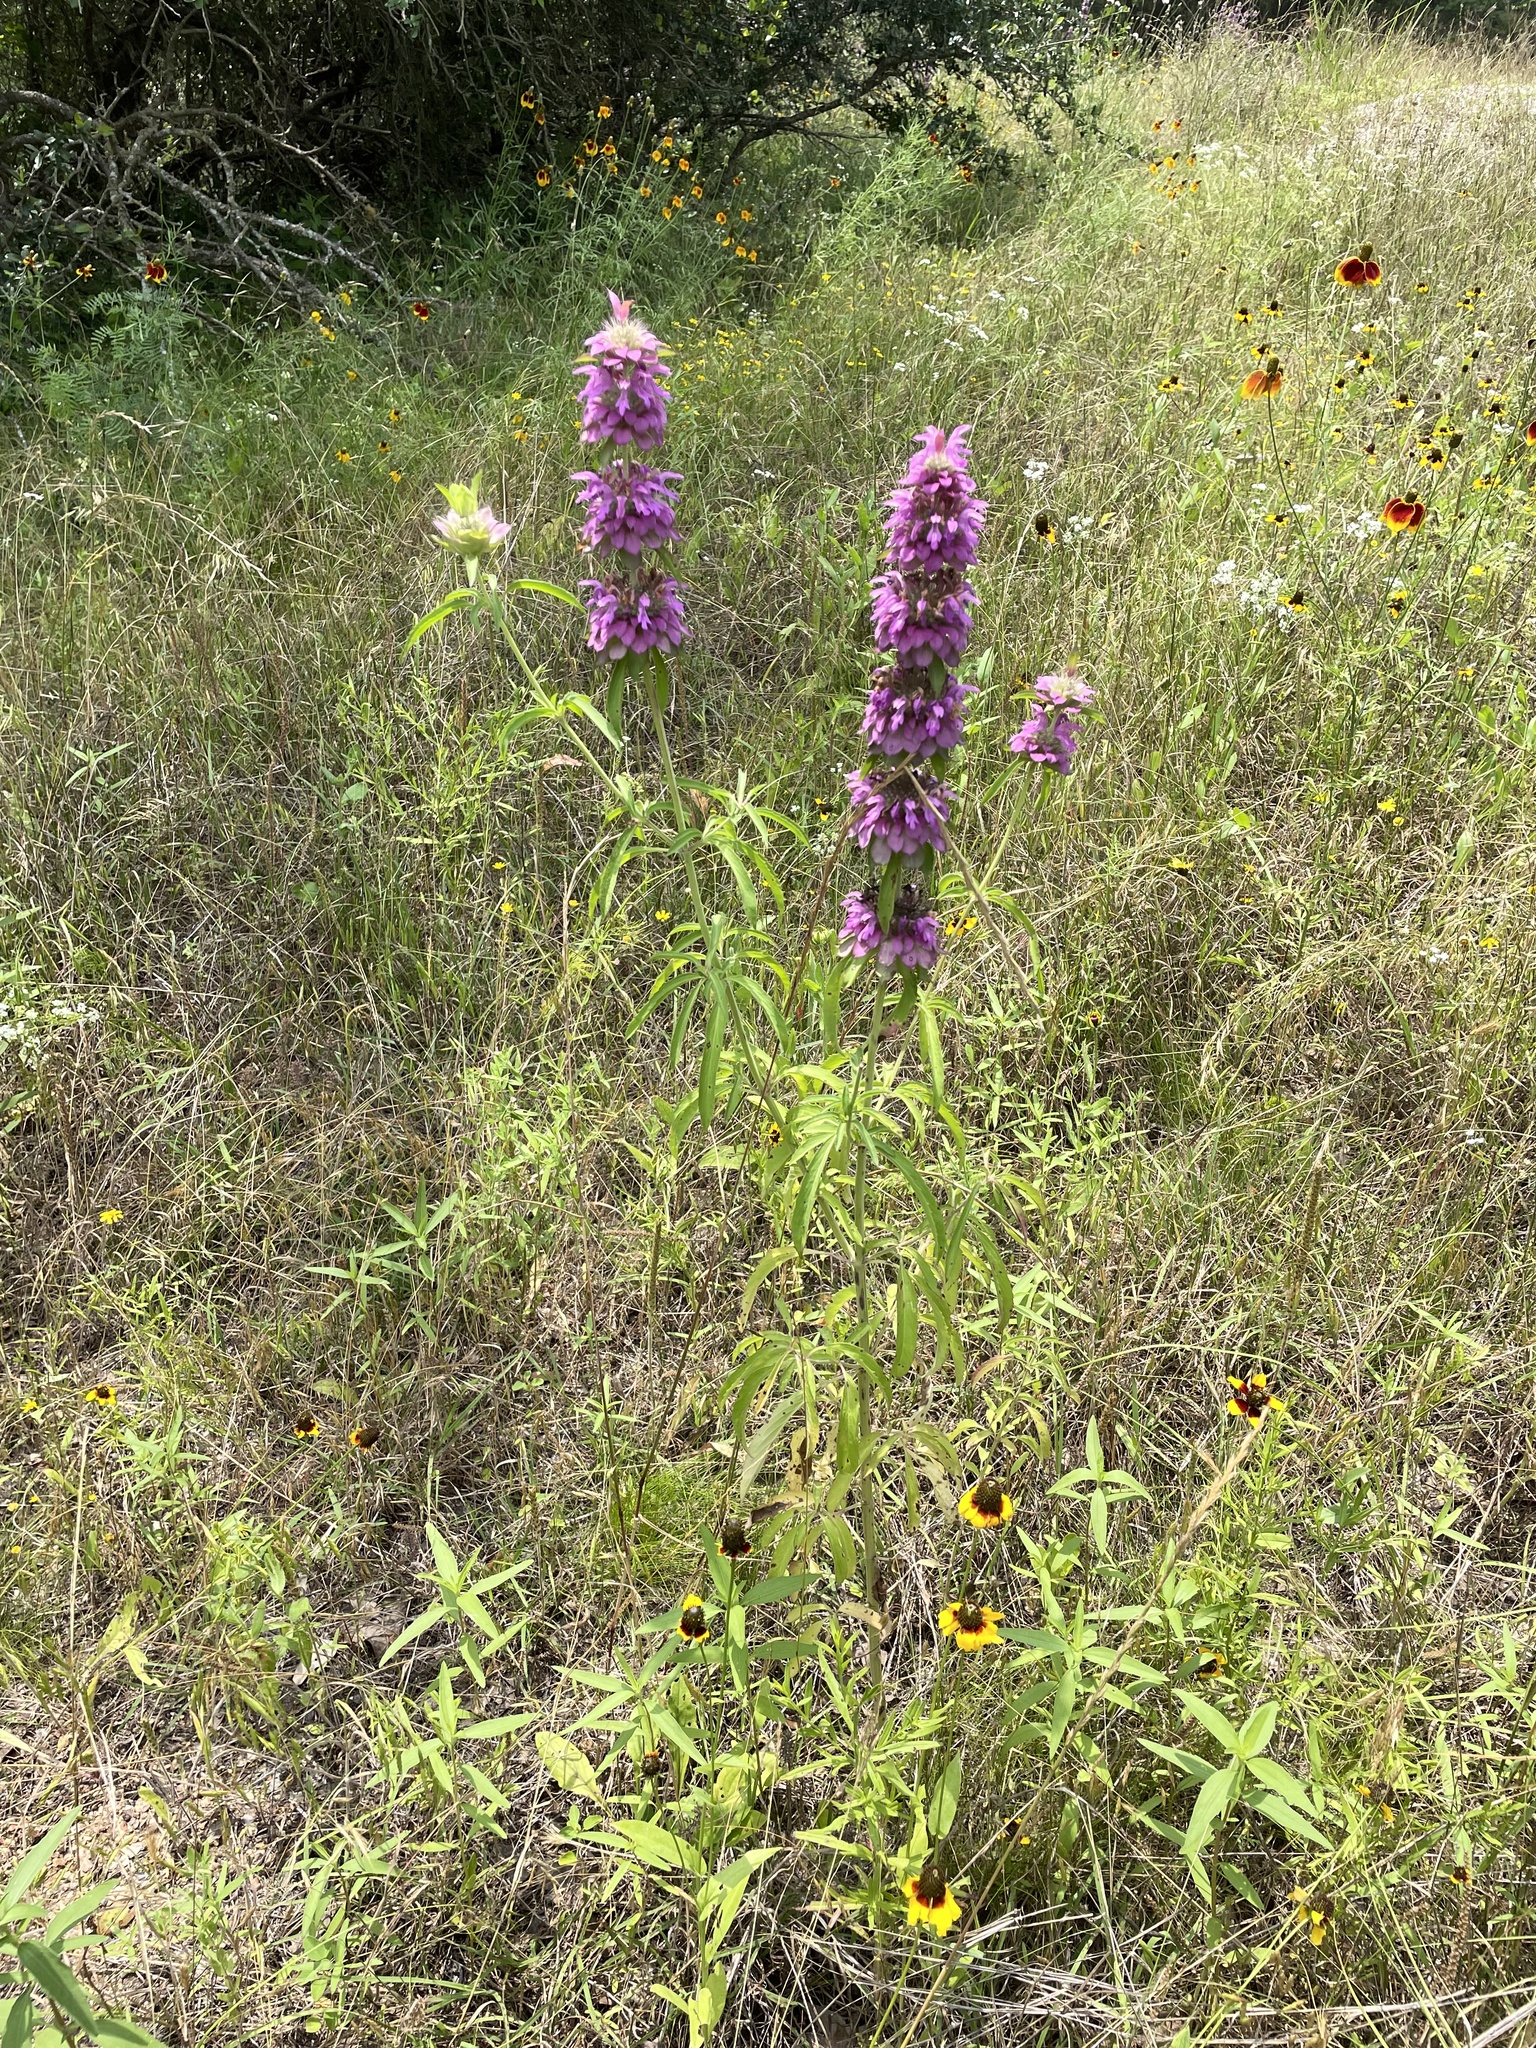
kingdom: Plantae
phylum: Tracheophyta
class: Magnoliopsida
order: Lamiales
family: Lamiaceae
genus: Monarda
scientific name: Monarda citriodora
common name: Lemon beebalm
